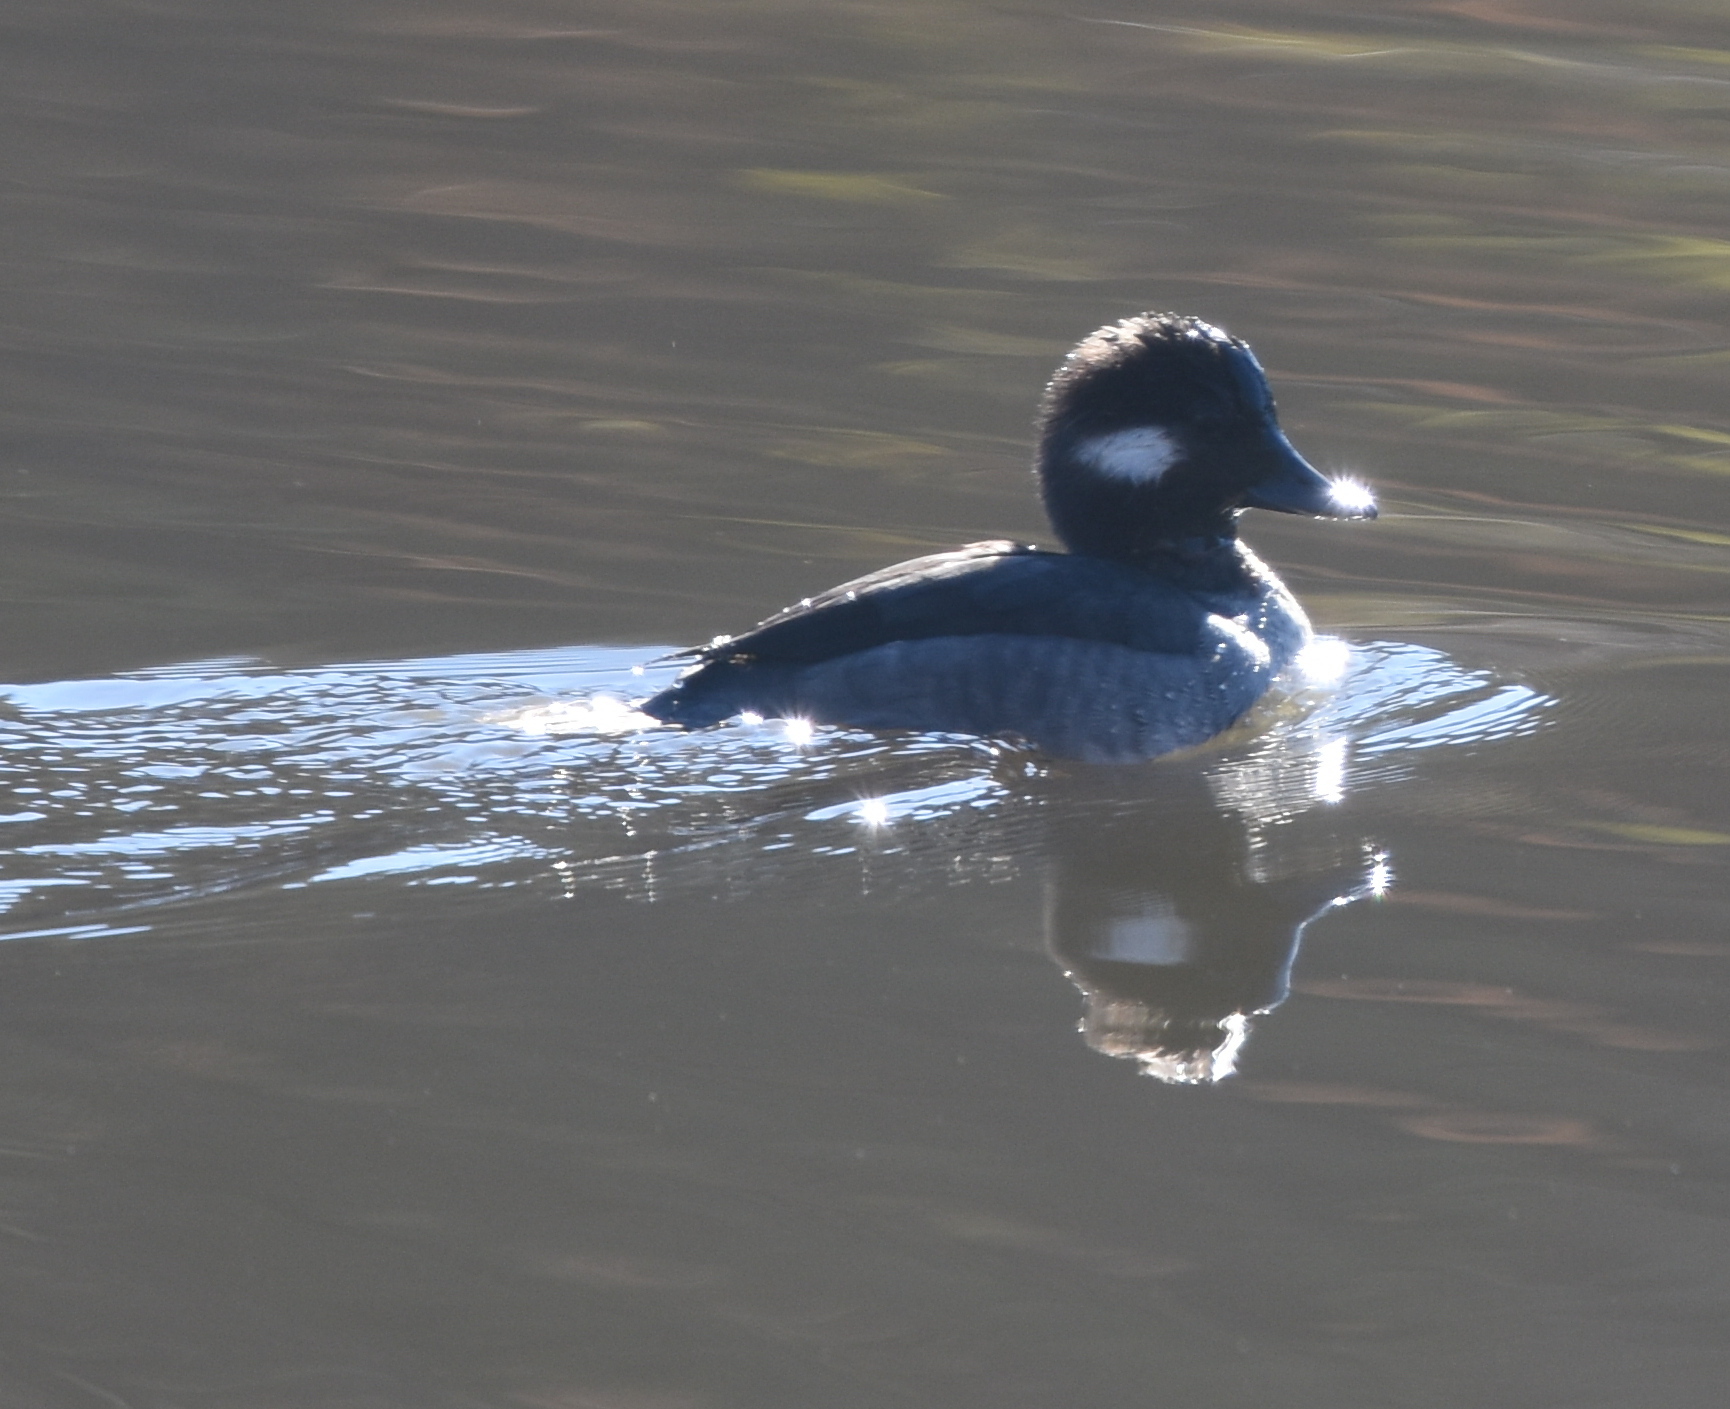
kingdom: Animalia
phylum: Chordata
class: Aves
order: Anseriformes
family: Anatidae
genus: Bucephala
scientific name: Bucephala albeola
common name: Bufflehead
